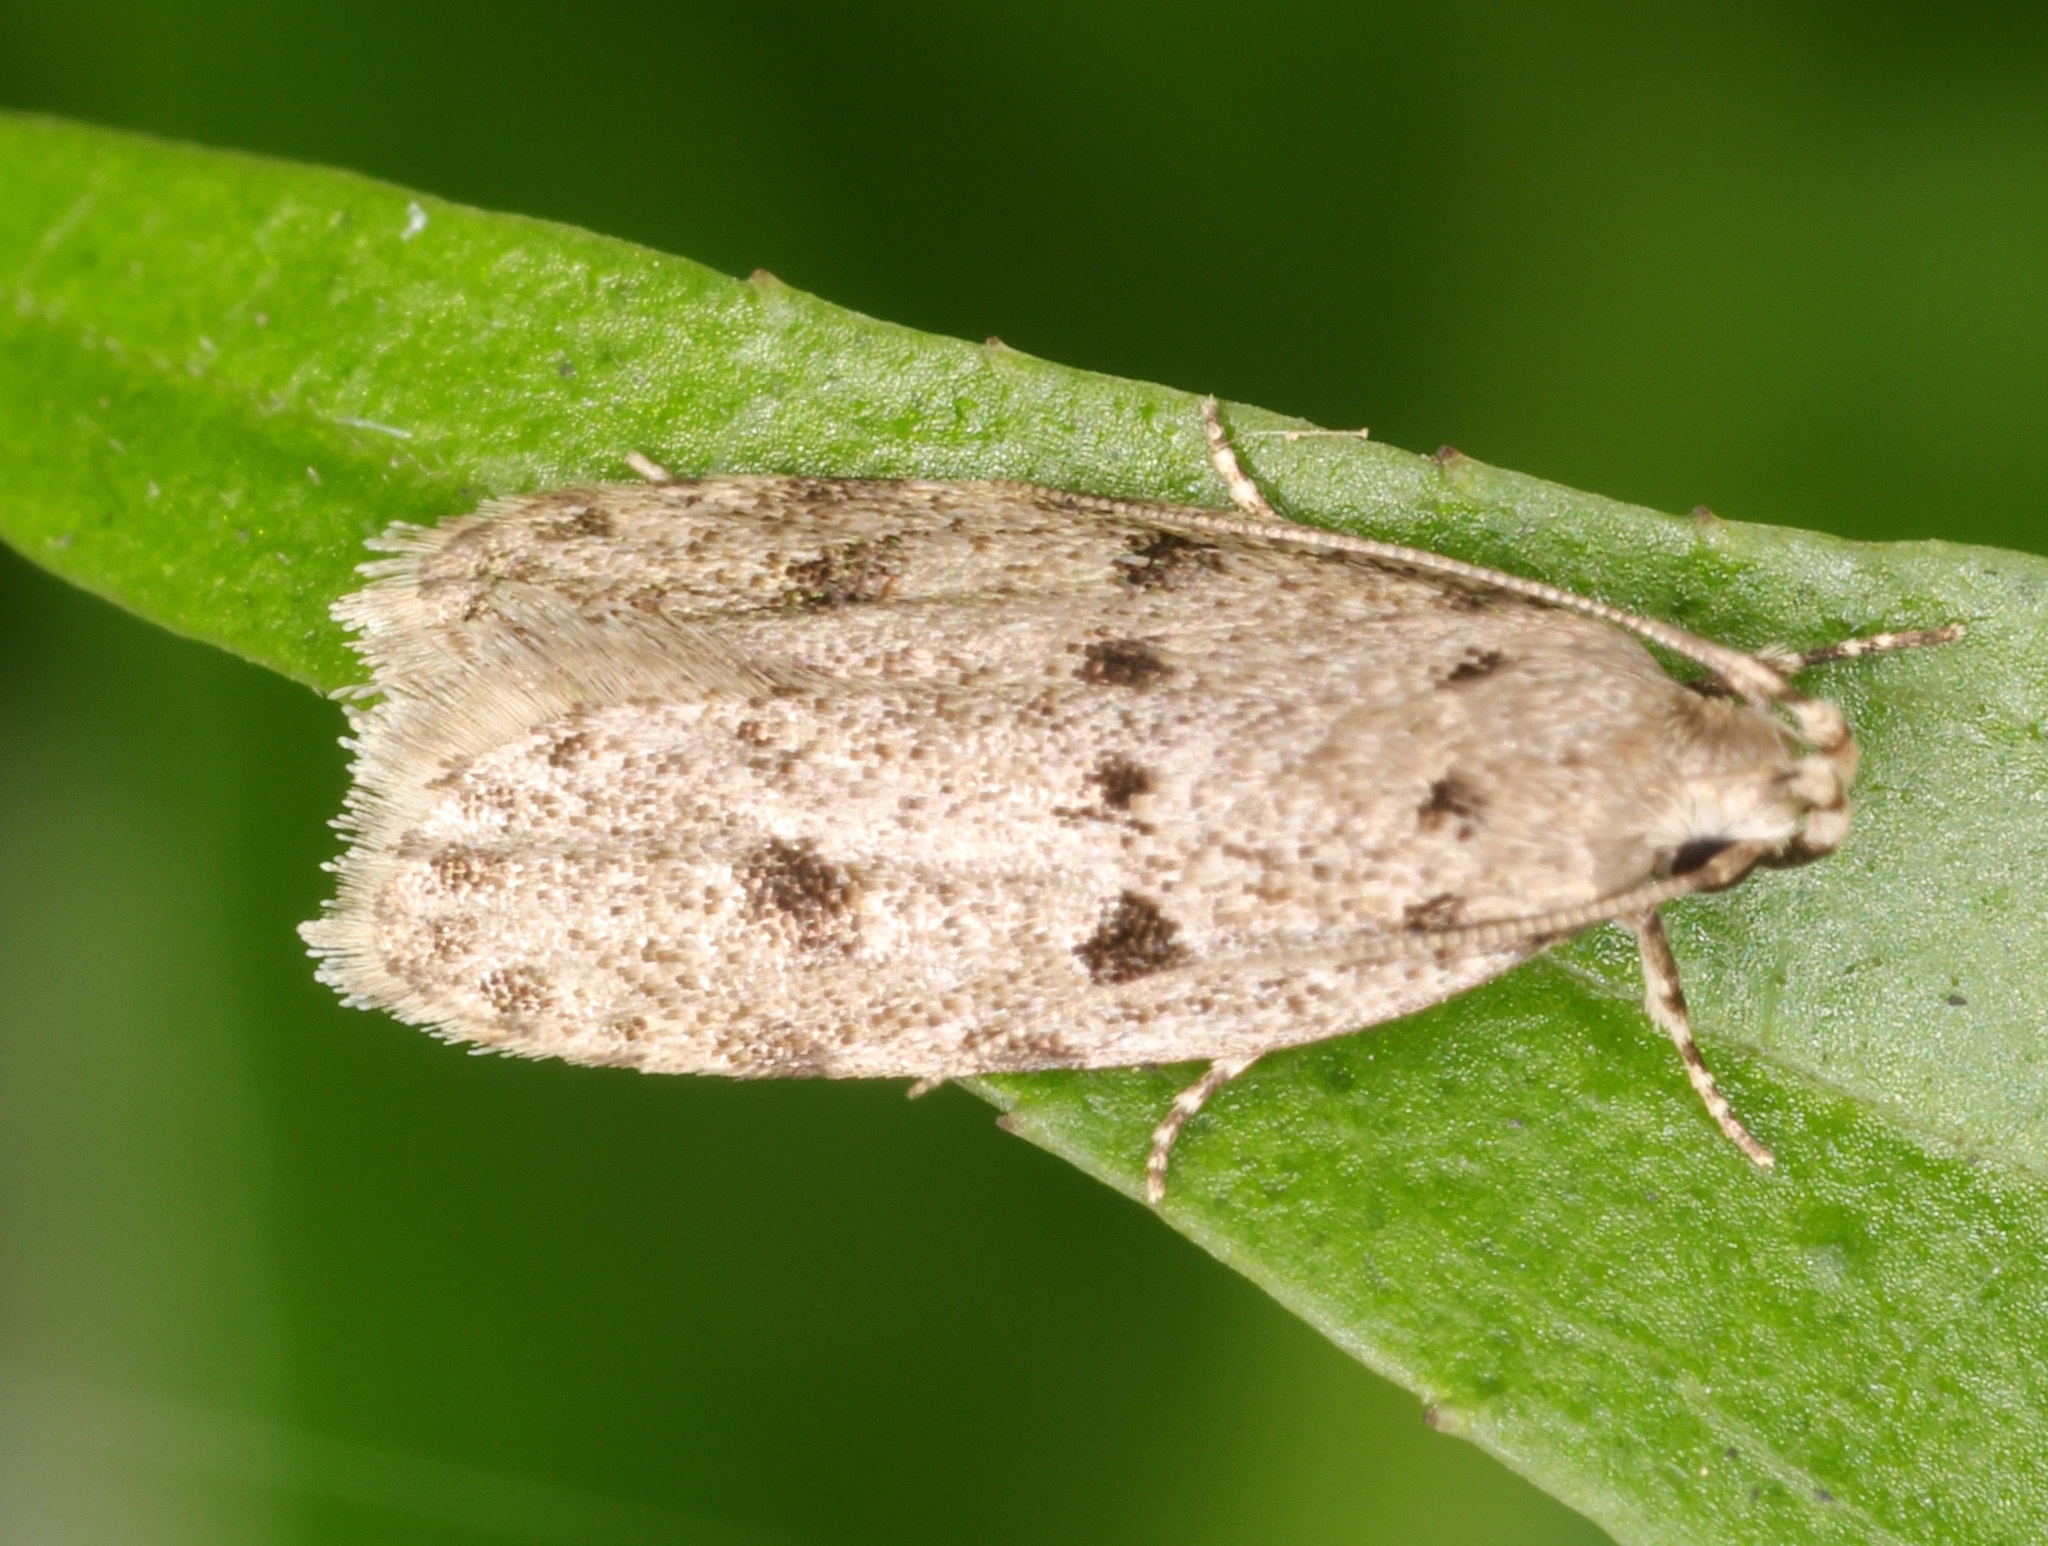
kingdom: Animalia
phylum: Arthropoda
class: Insecta
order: Lepidoptera
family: Autostichidae
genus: Autosticha
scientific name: Autosticha calceata
